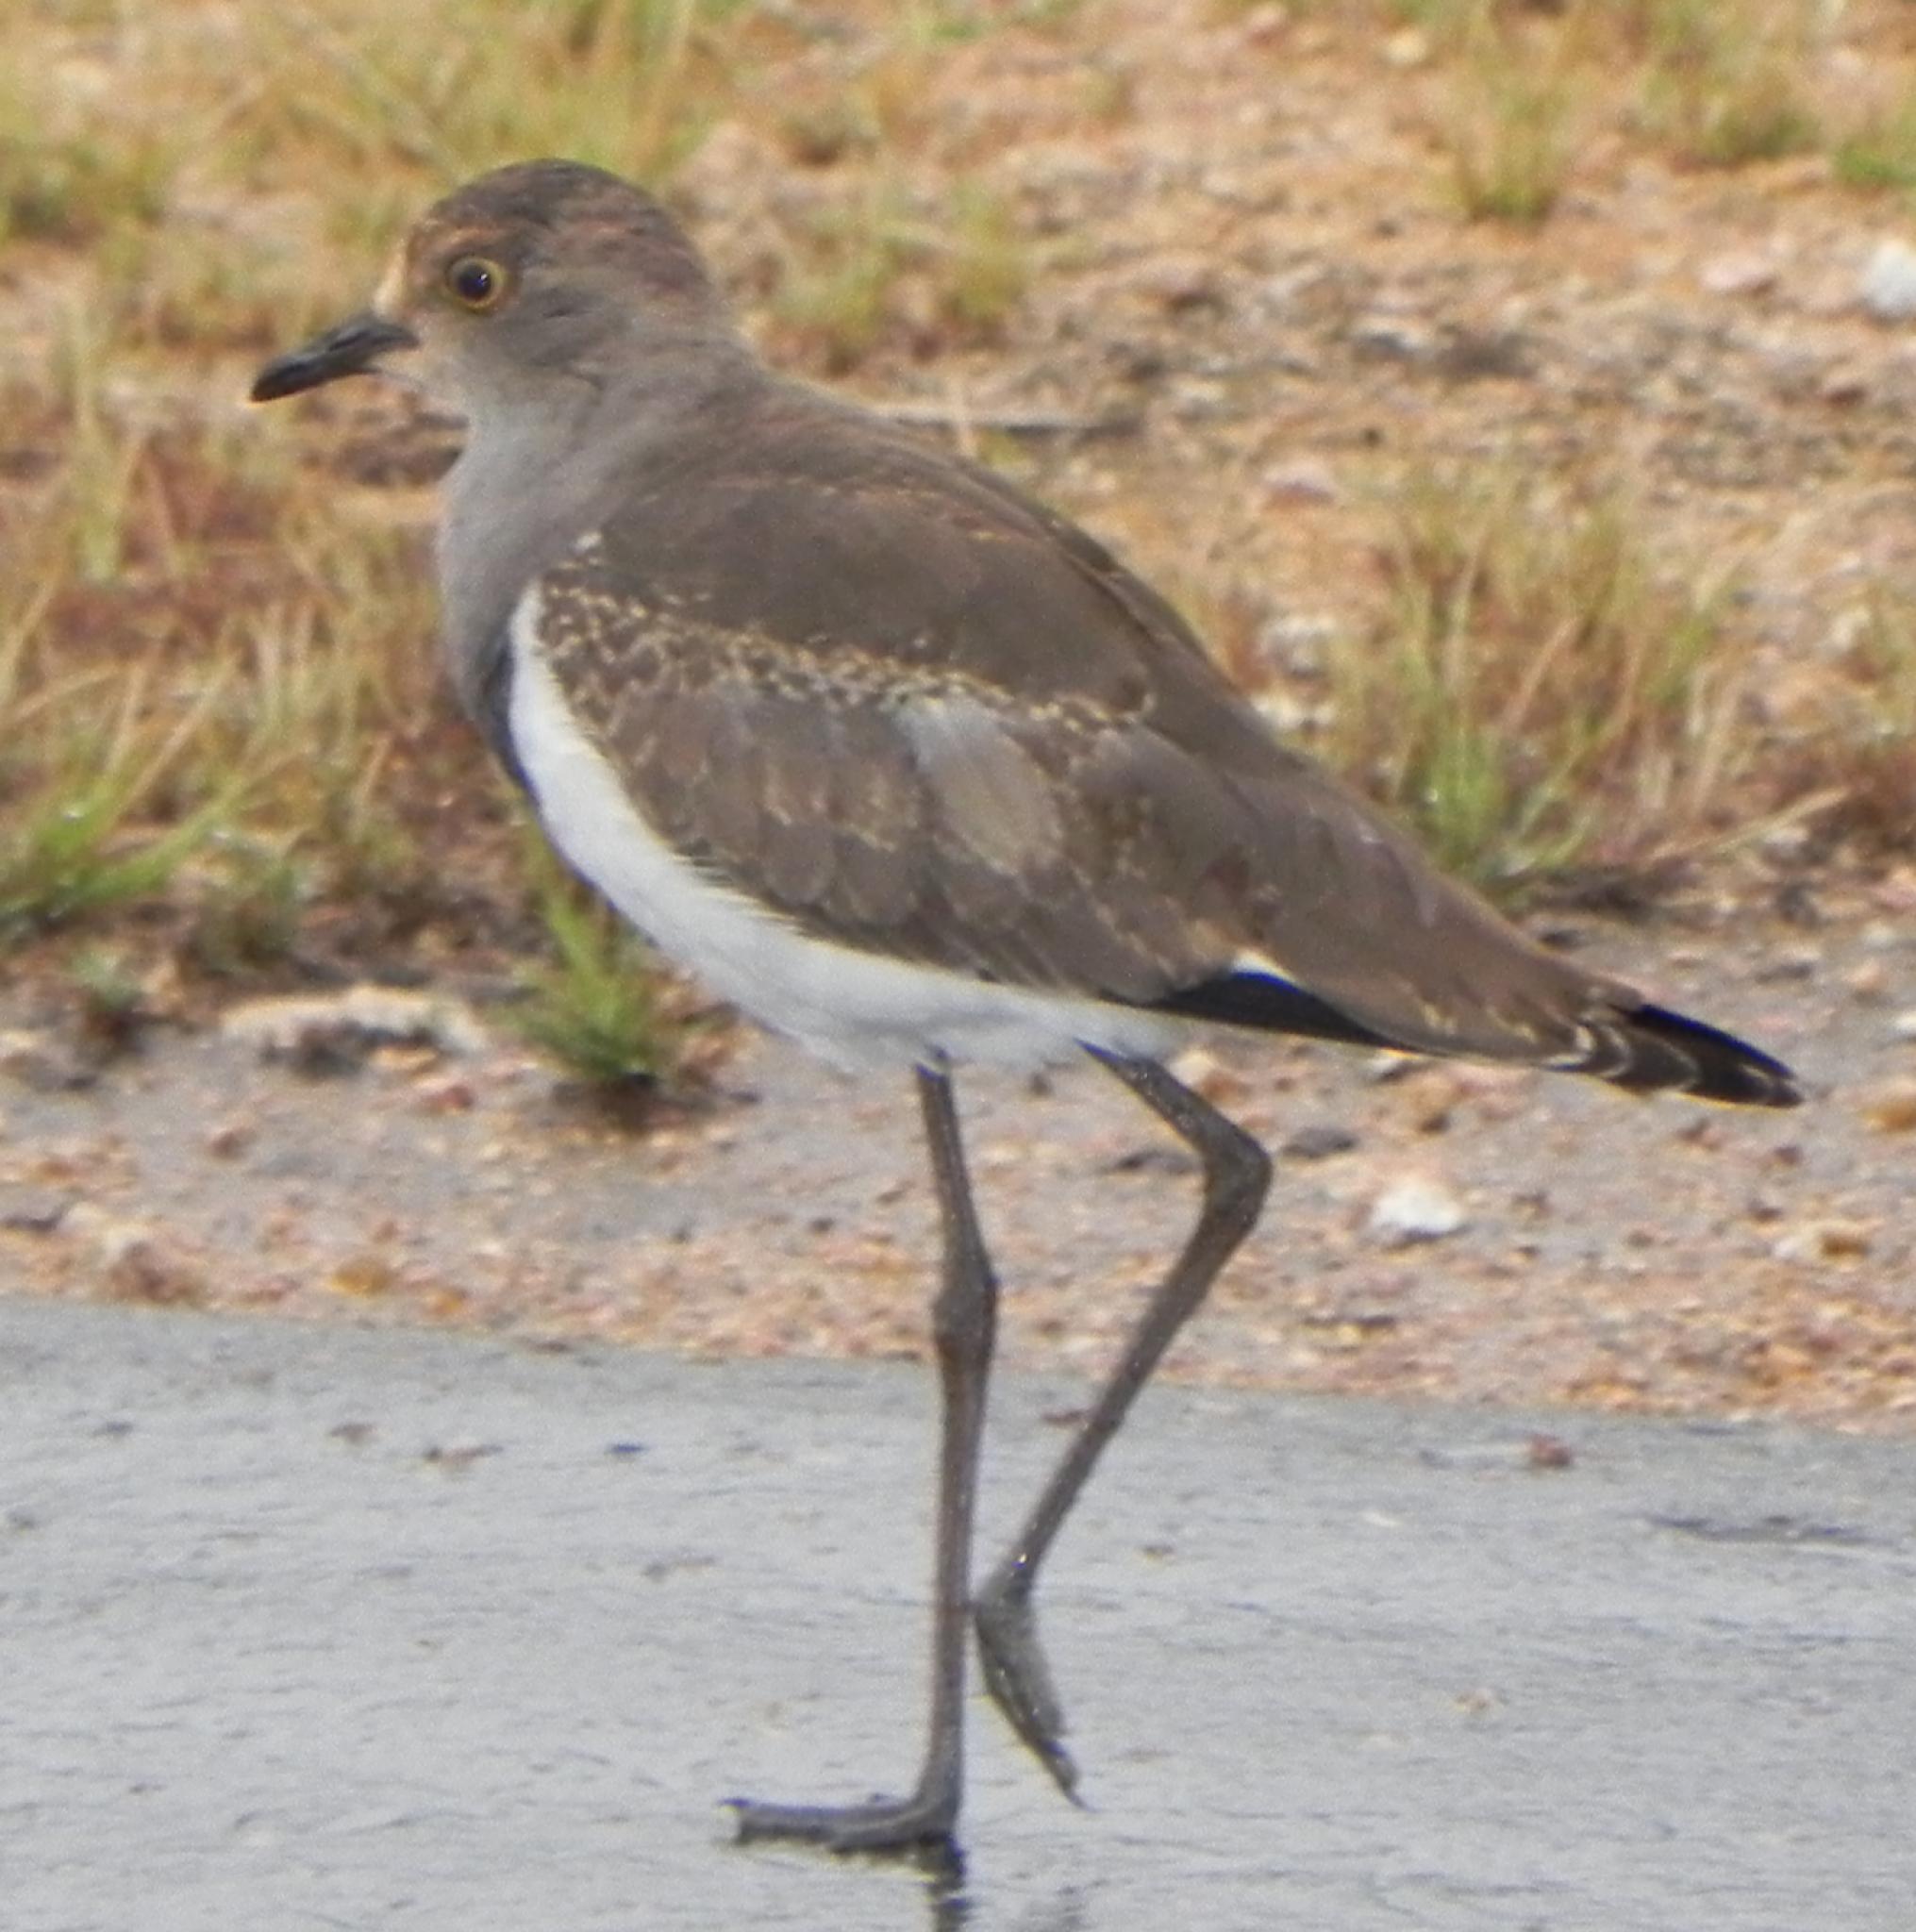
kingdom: Animalia
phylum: Chordata
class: Aves
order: Charadriiformes
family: Charadriidae
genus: Vanellus
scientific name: Vanellus lugubris
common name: Senegal lapwing
